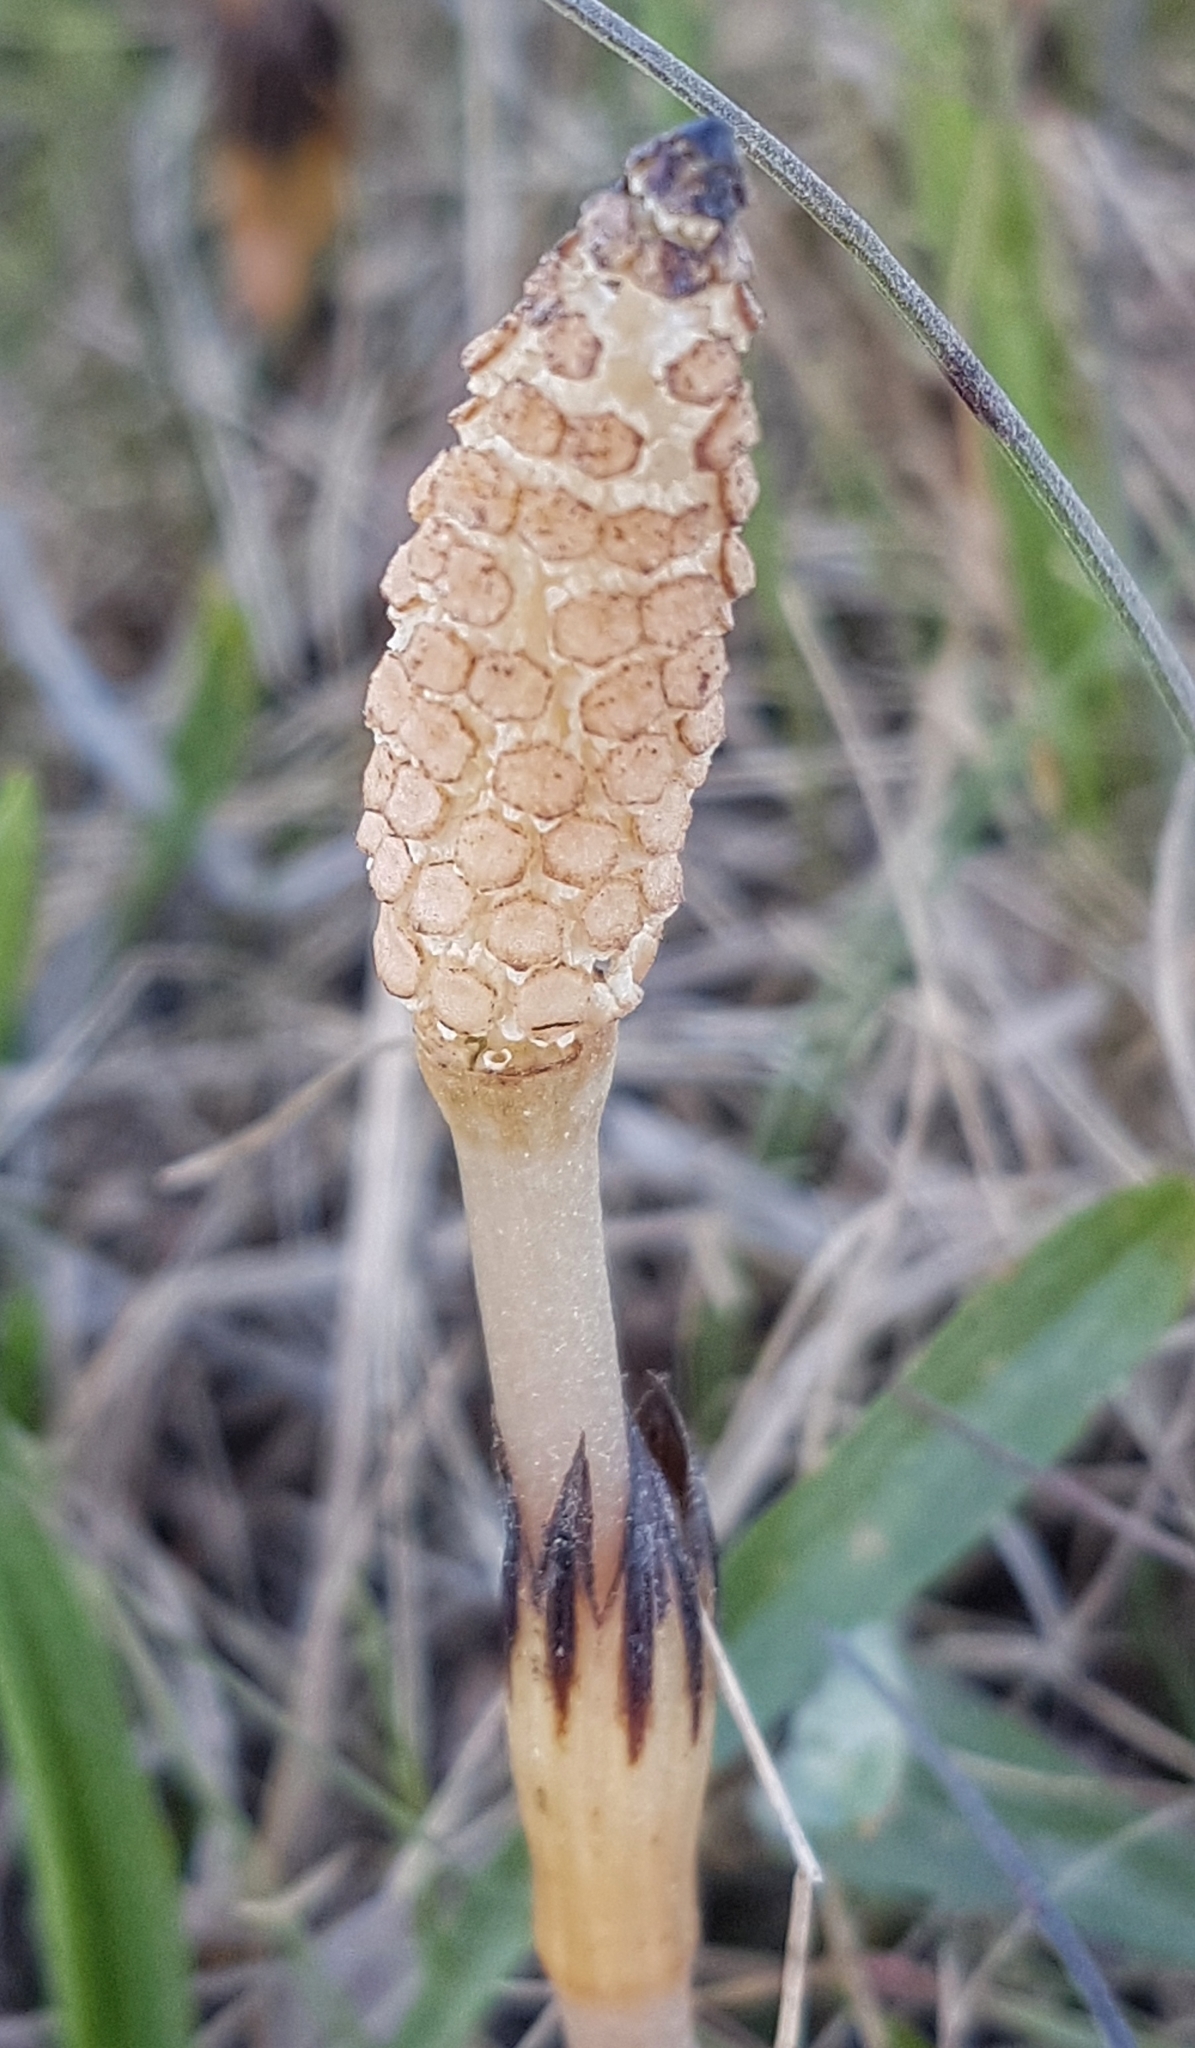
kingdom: Plantae
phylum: Tracheophyta
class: Polypodiopsida
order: Equisetales
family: Equisetaceae
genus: Equisetum
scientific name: Equisetum arvense
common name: Field horsetail
